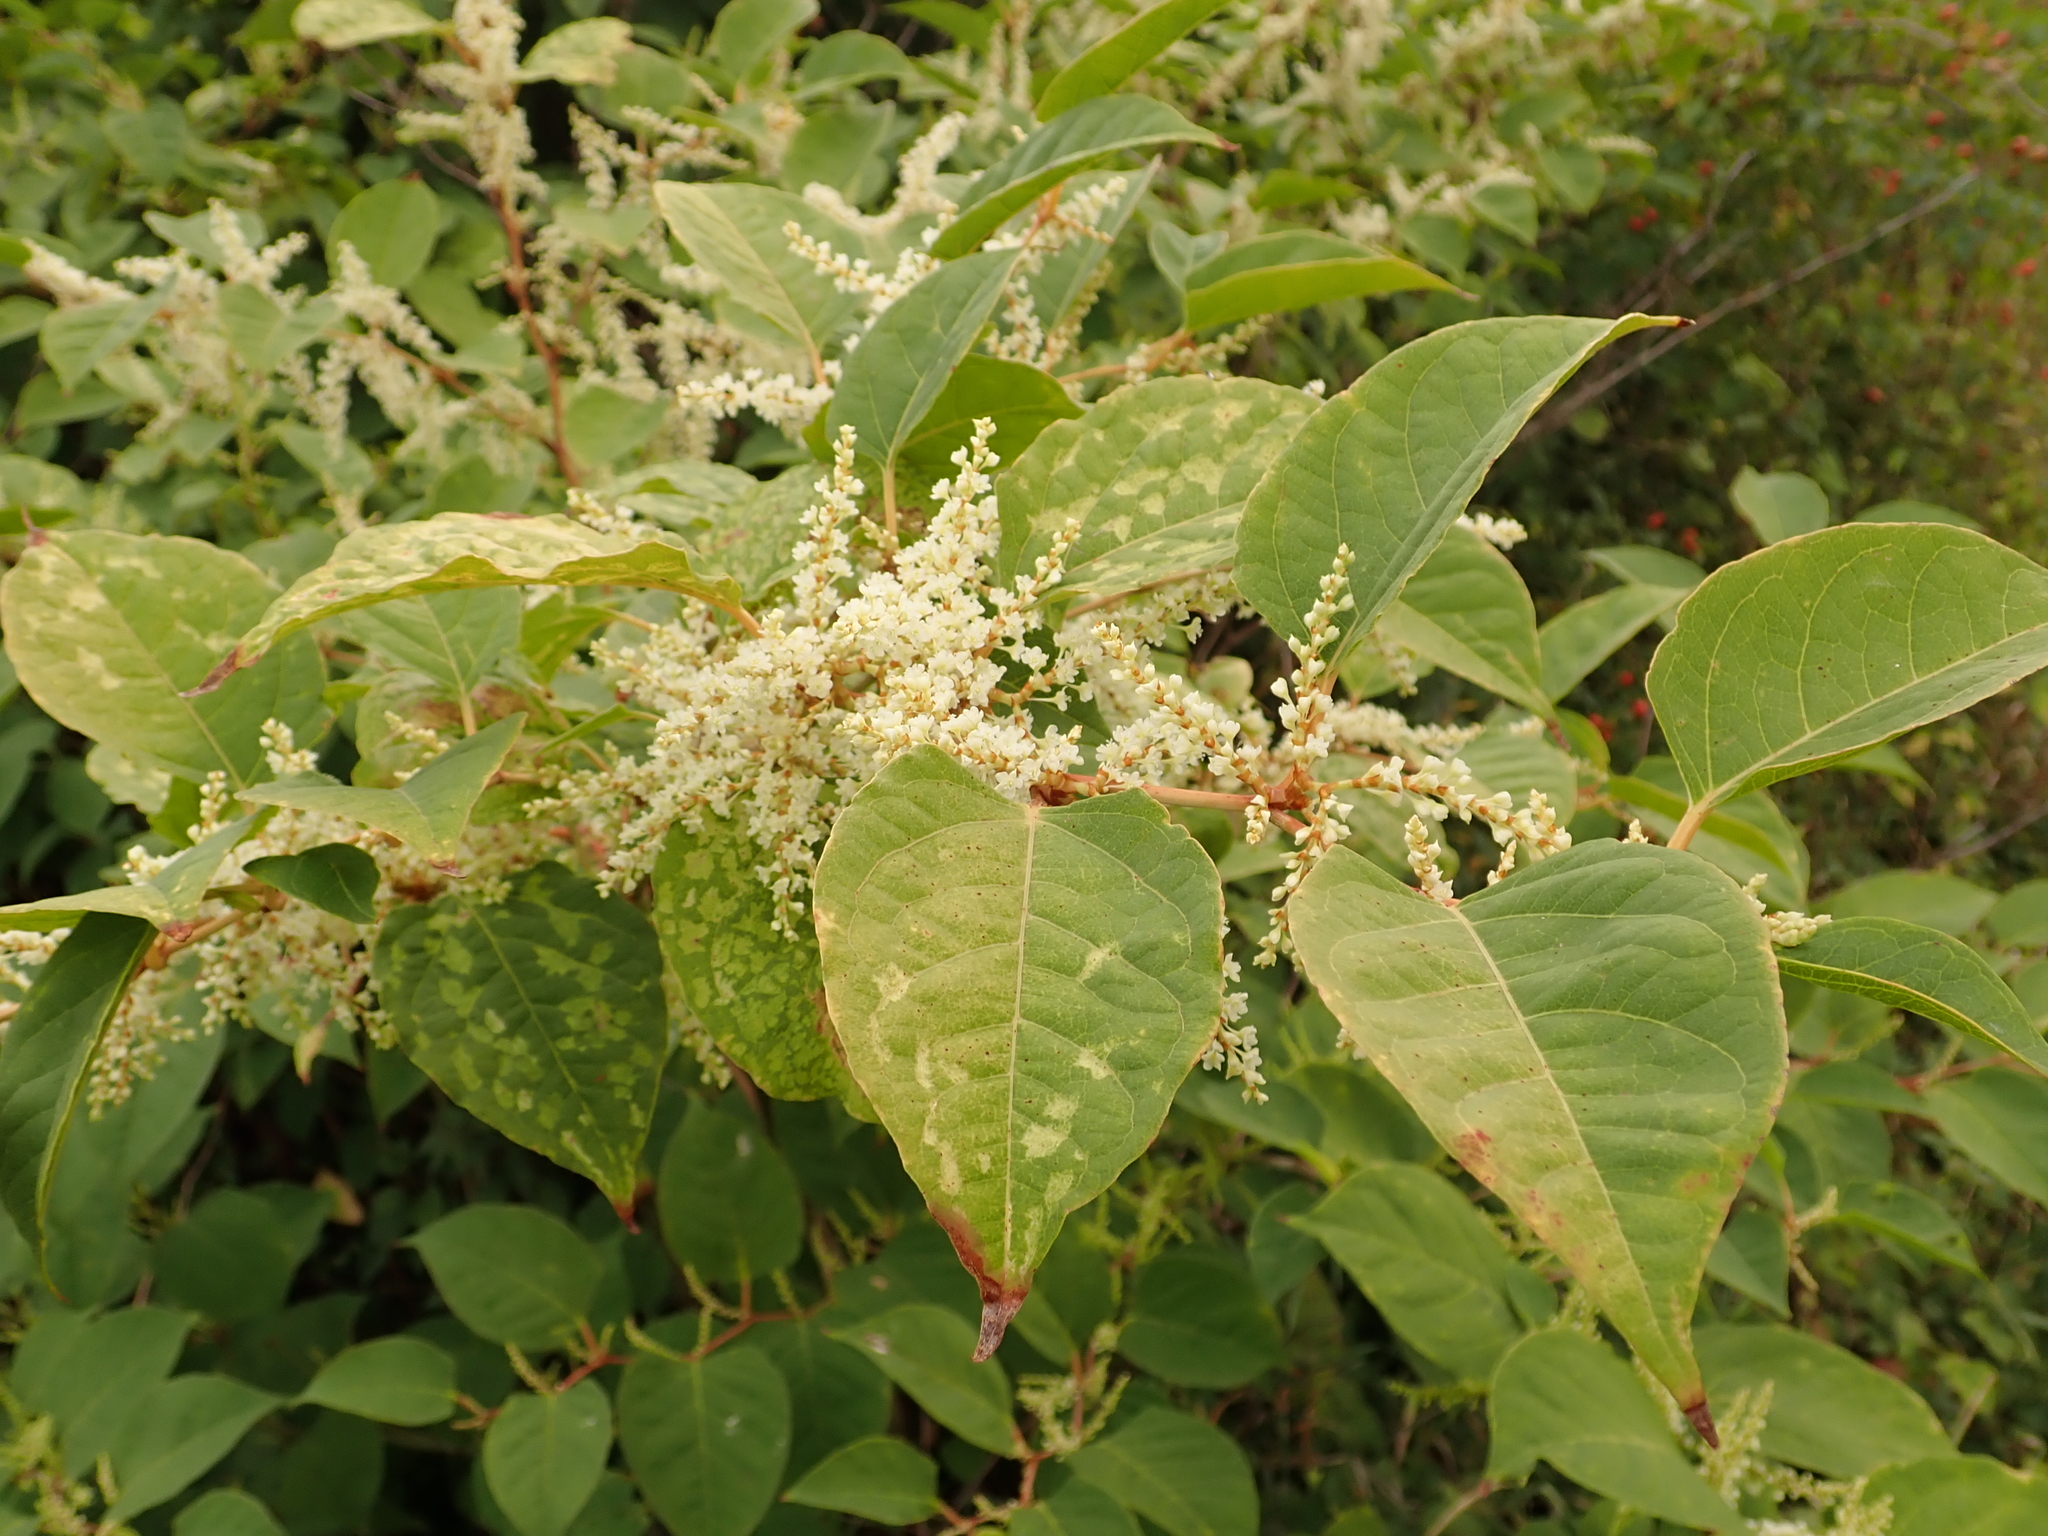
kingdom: Plantae
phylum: Tracheophyta
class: Magnoliopsida
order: Caryophyllales
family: Polygonaceae
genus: Reynoutria
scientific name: Reynoutria japonica
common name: Japanese knotweed
